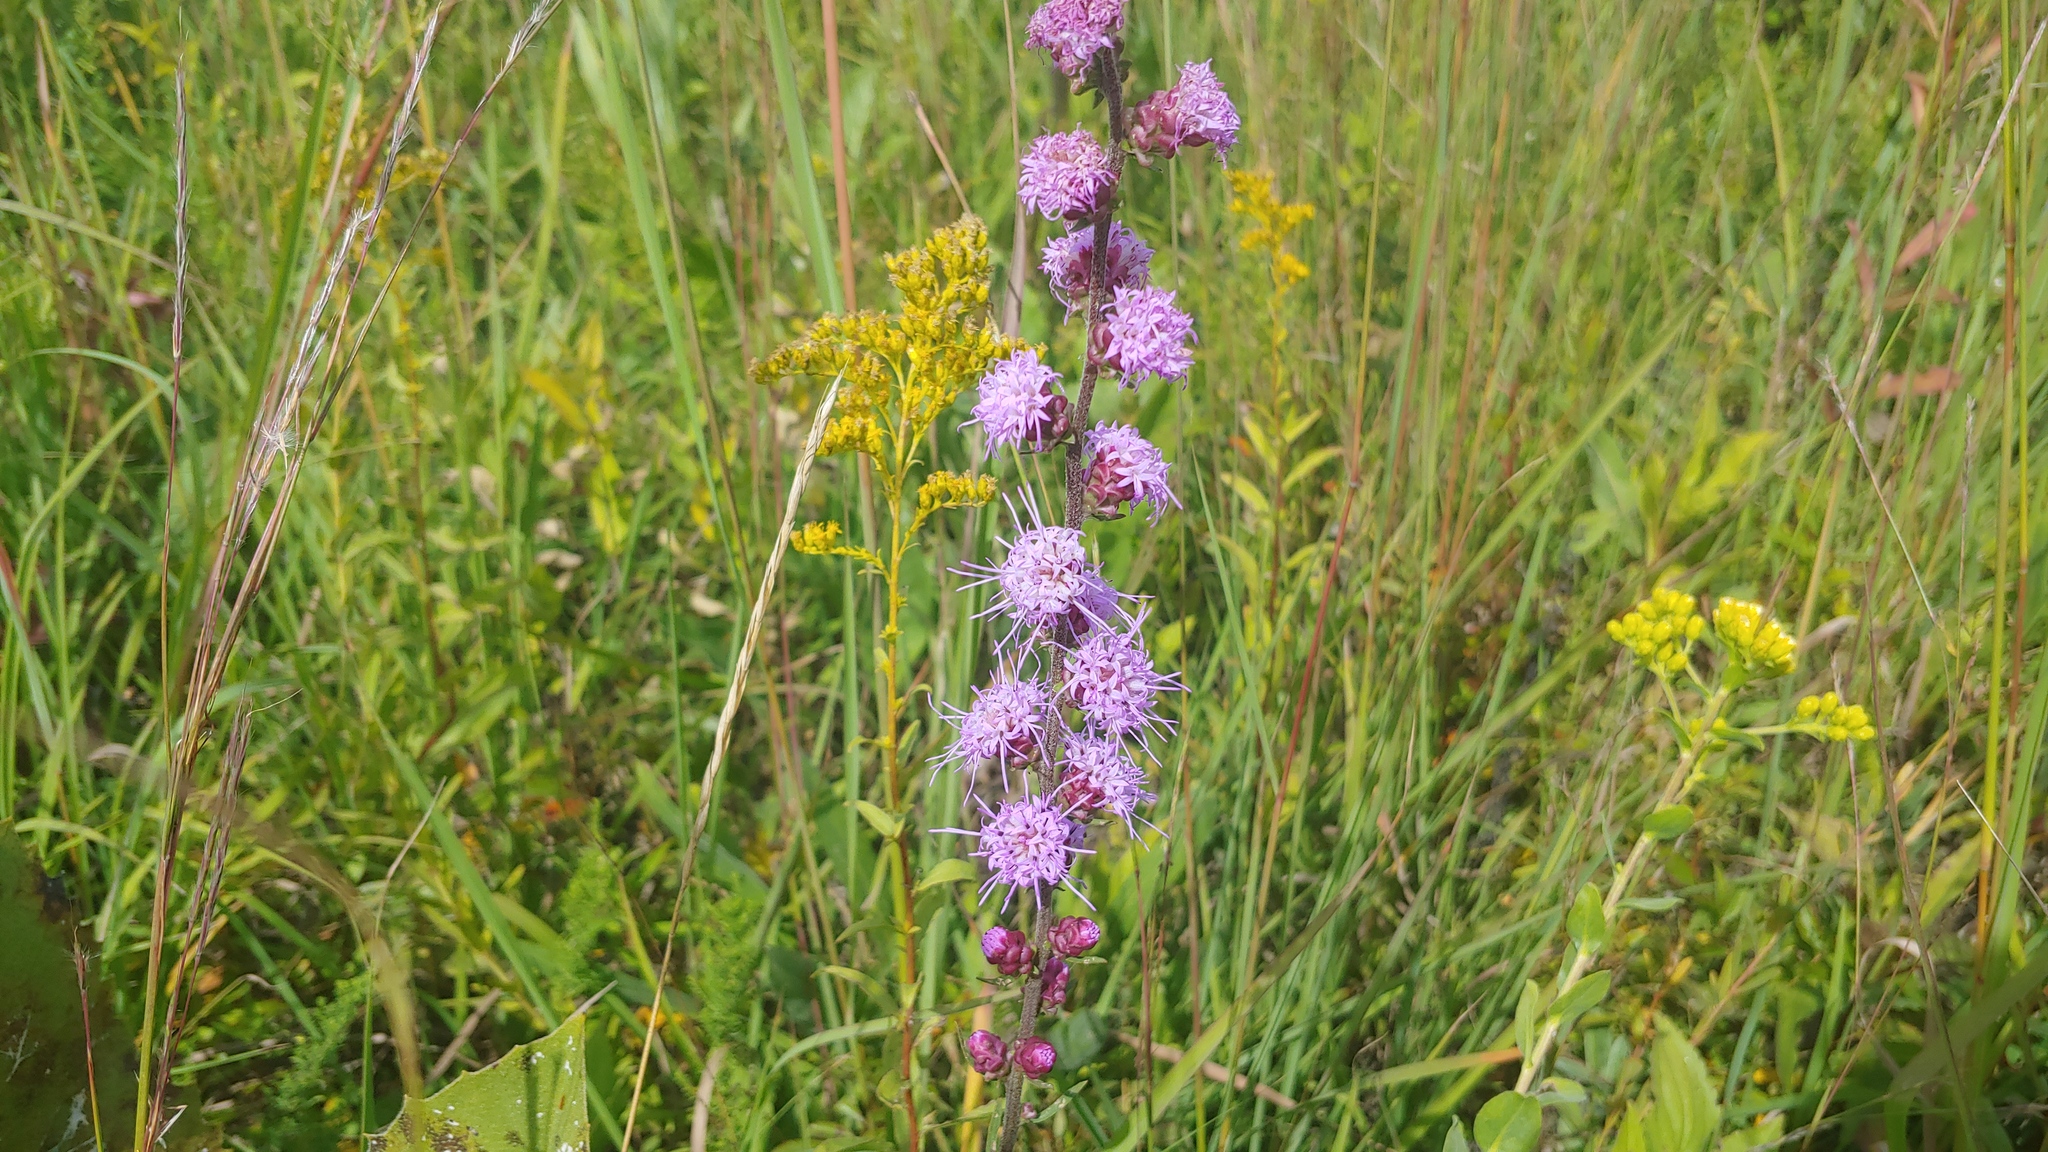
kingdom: Plantae
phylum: Tracheophyta
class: Magnoliopsida
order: Asterales
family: Asteraceae
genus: Liatris
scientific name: Liatris aspera
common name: Lacerate blazing-star
